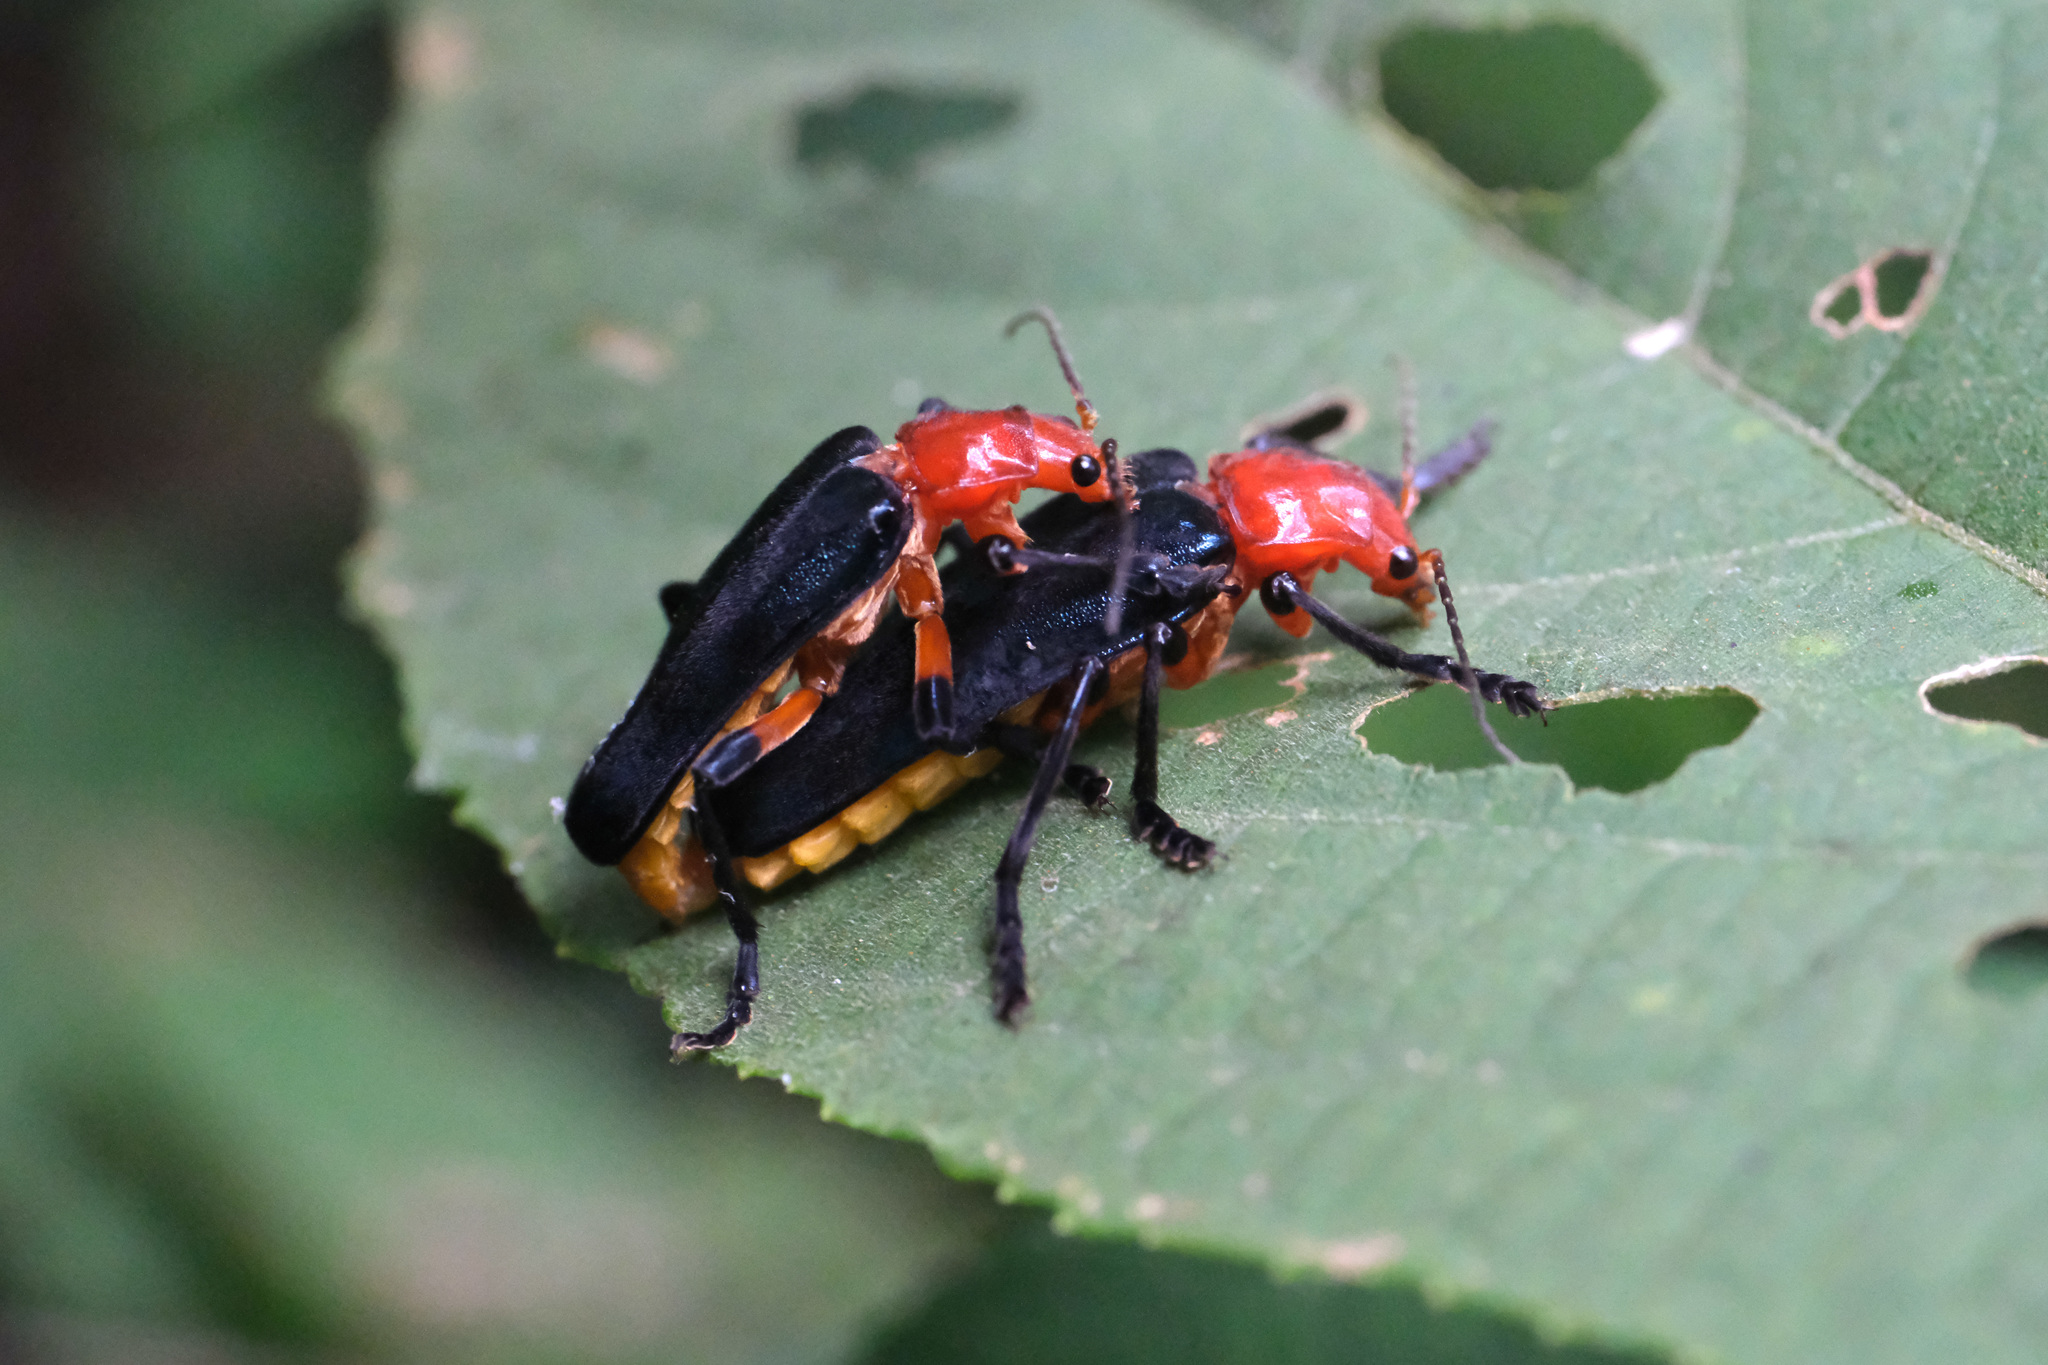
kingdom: Animalia
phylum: Arthropoda
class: Insecta
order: Coleoptera
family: Cantharidae
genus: Themus
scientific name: Themus impressipennis
